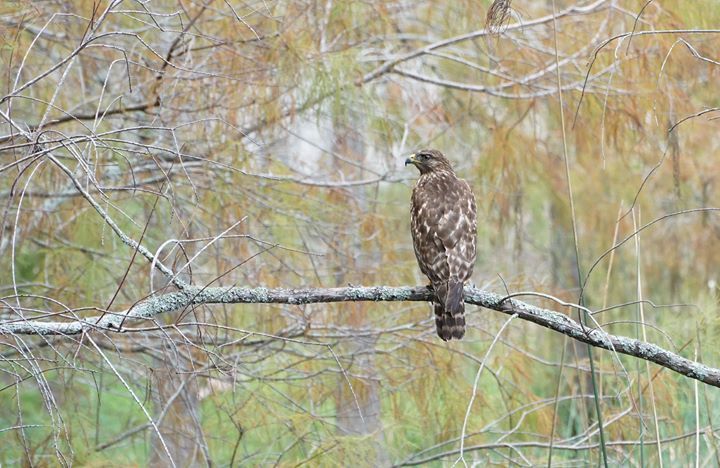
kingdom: Animalia
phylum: Chordata
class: Aves
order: Accipitriformes
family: Accipitridae
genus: Buteo
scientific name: Buteo lineatus
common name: Red-shouldered hawk
